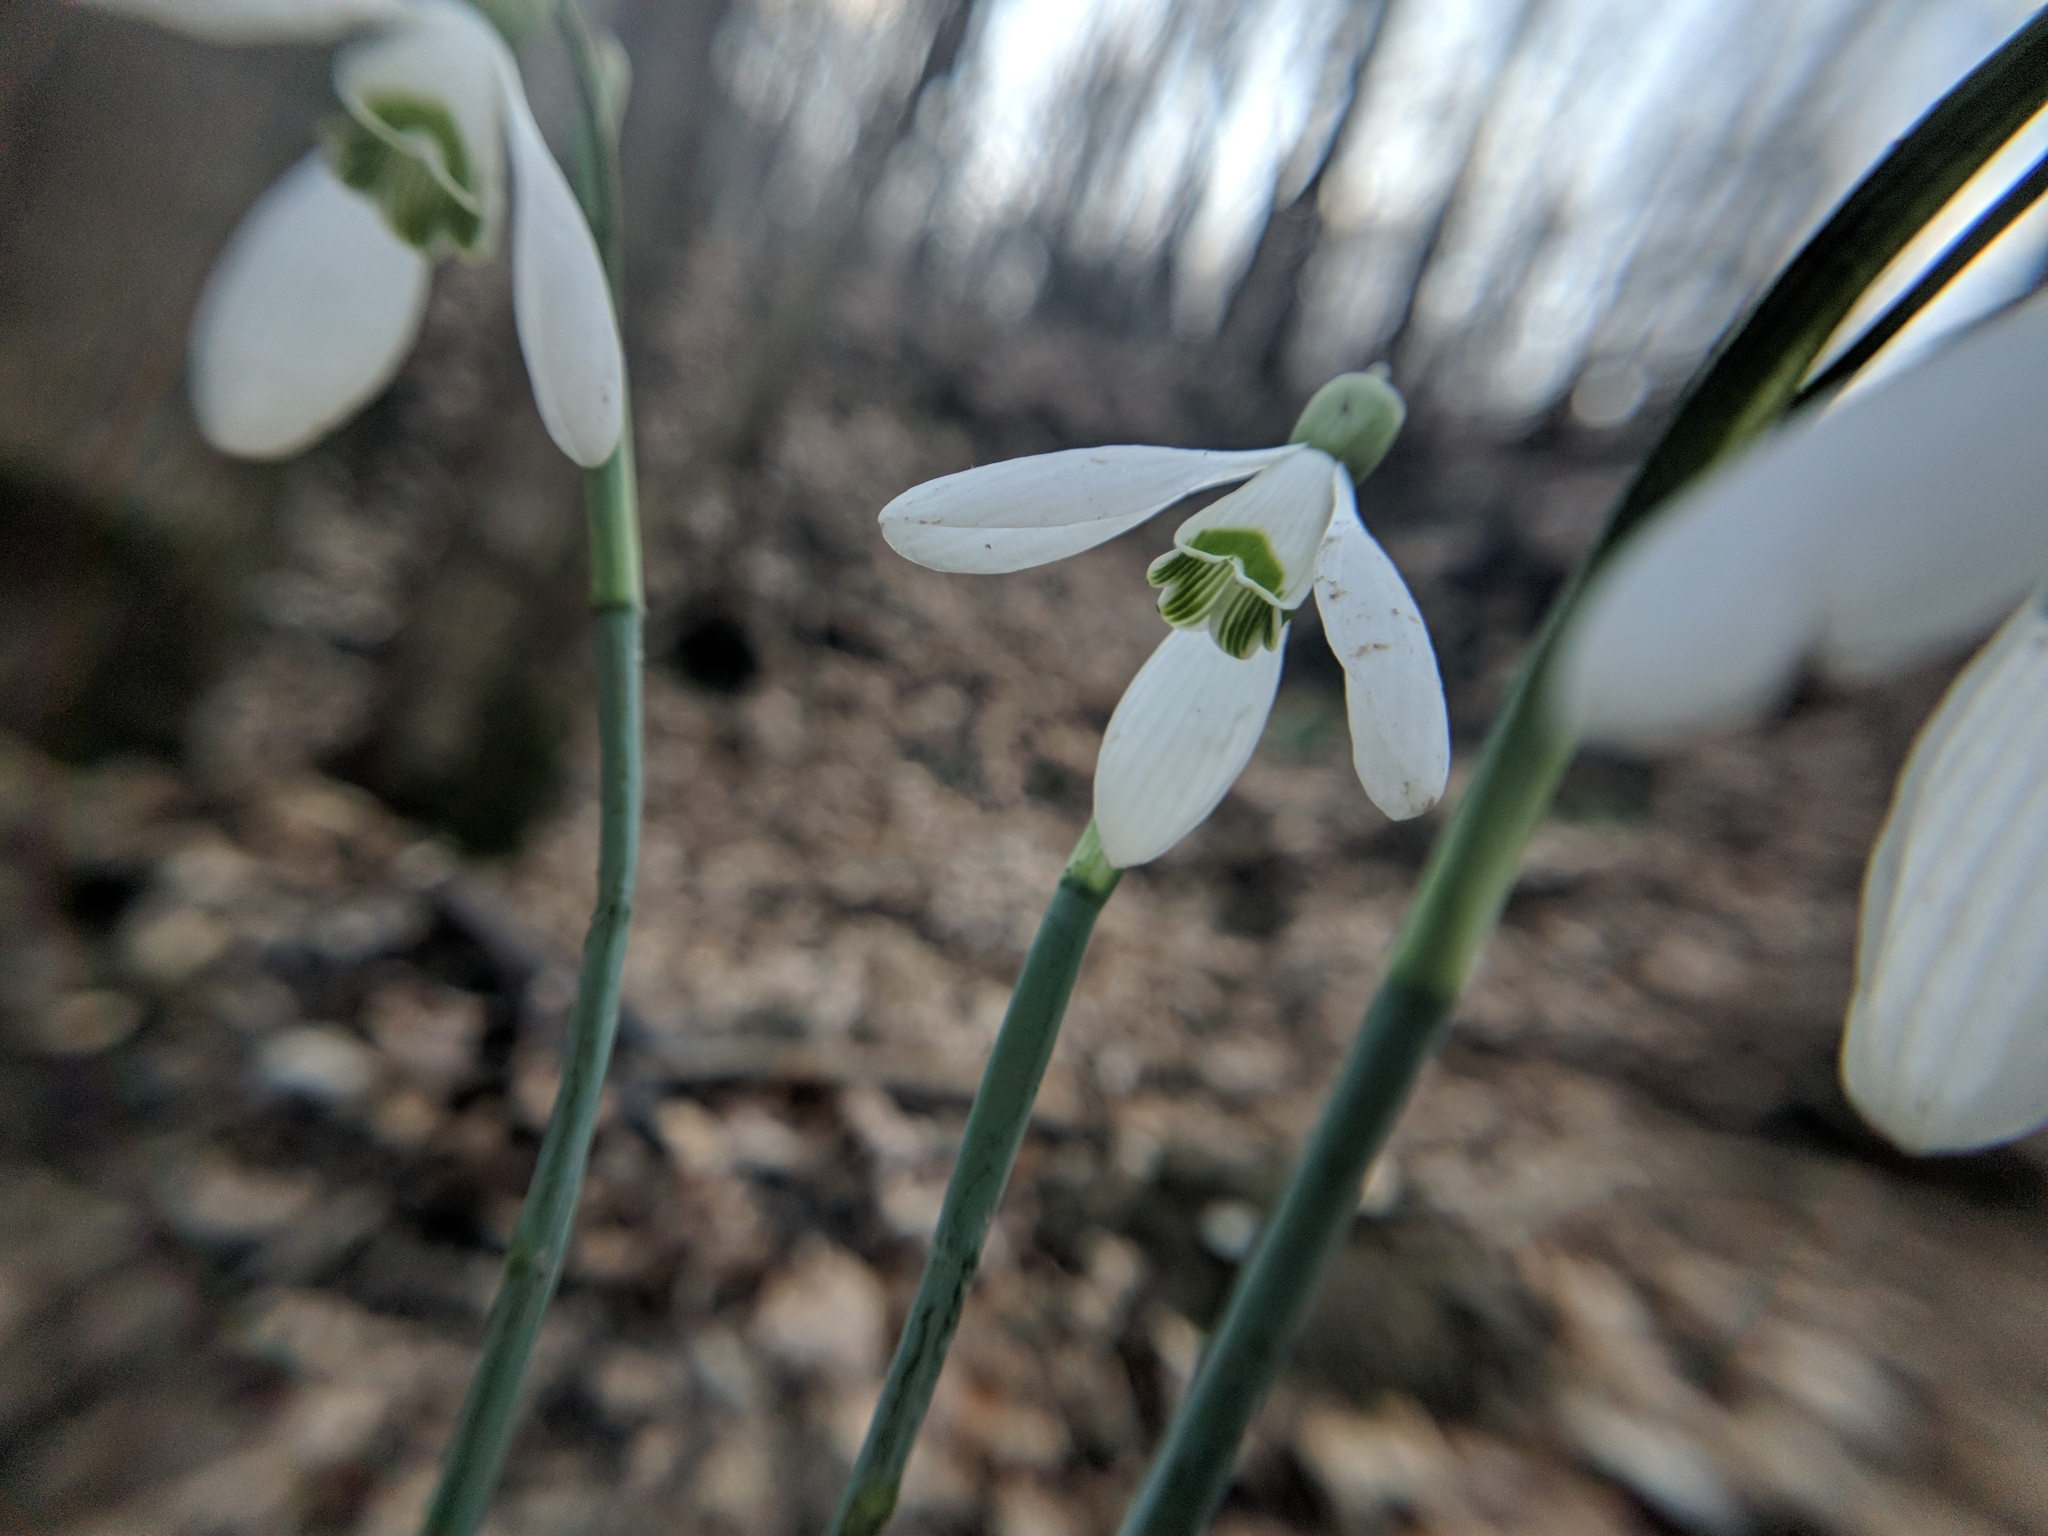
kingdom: Plantae
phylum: Tracheophyta
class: Liliopsida
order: Asparagales
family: Amaryllidaceae
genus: Galanthus
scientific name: Galanthus nivalis
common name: Snowdrop
